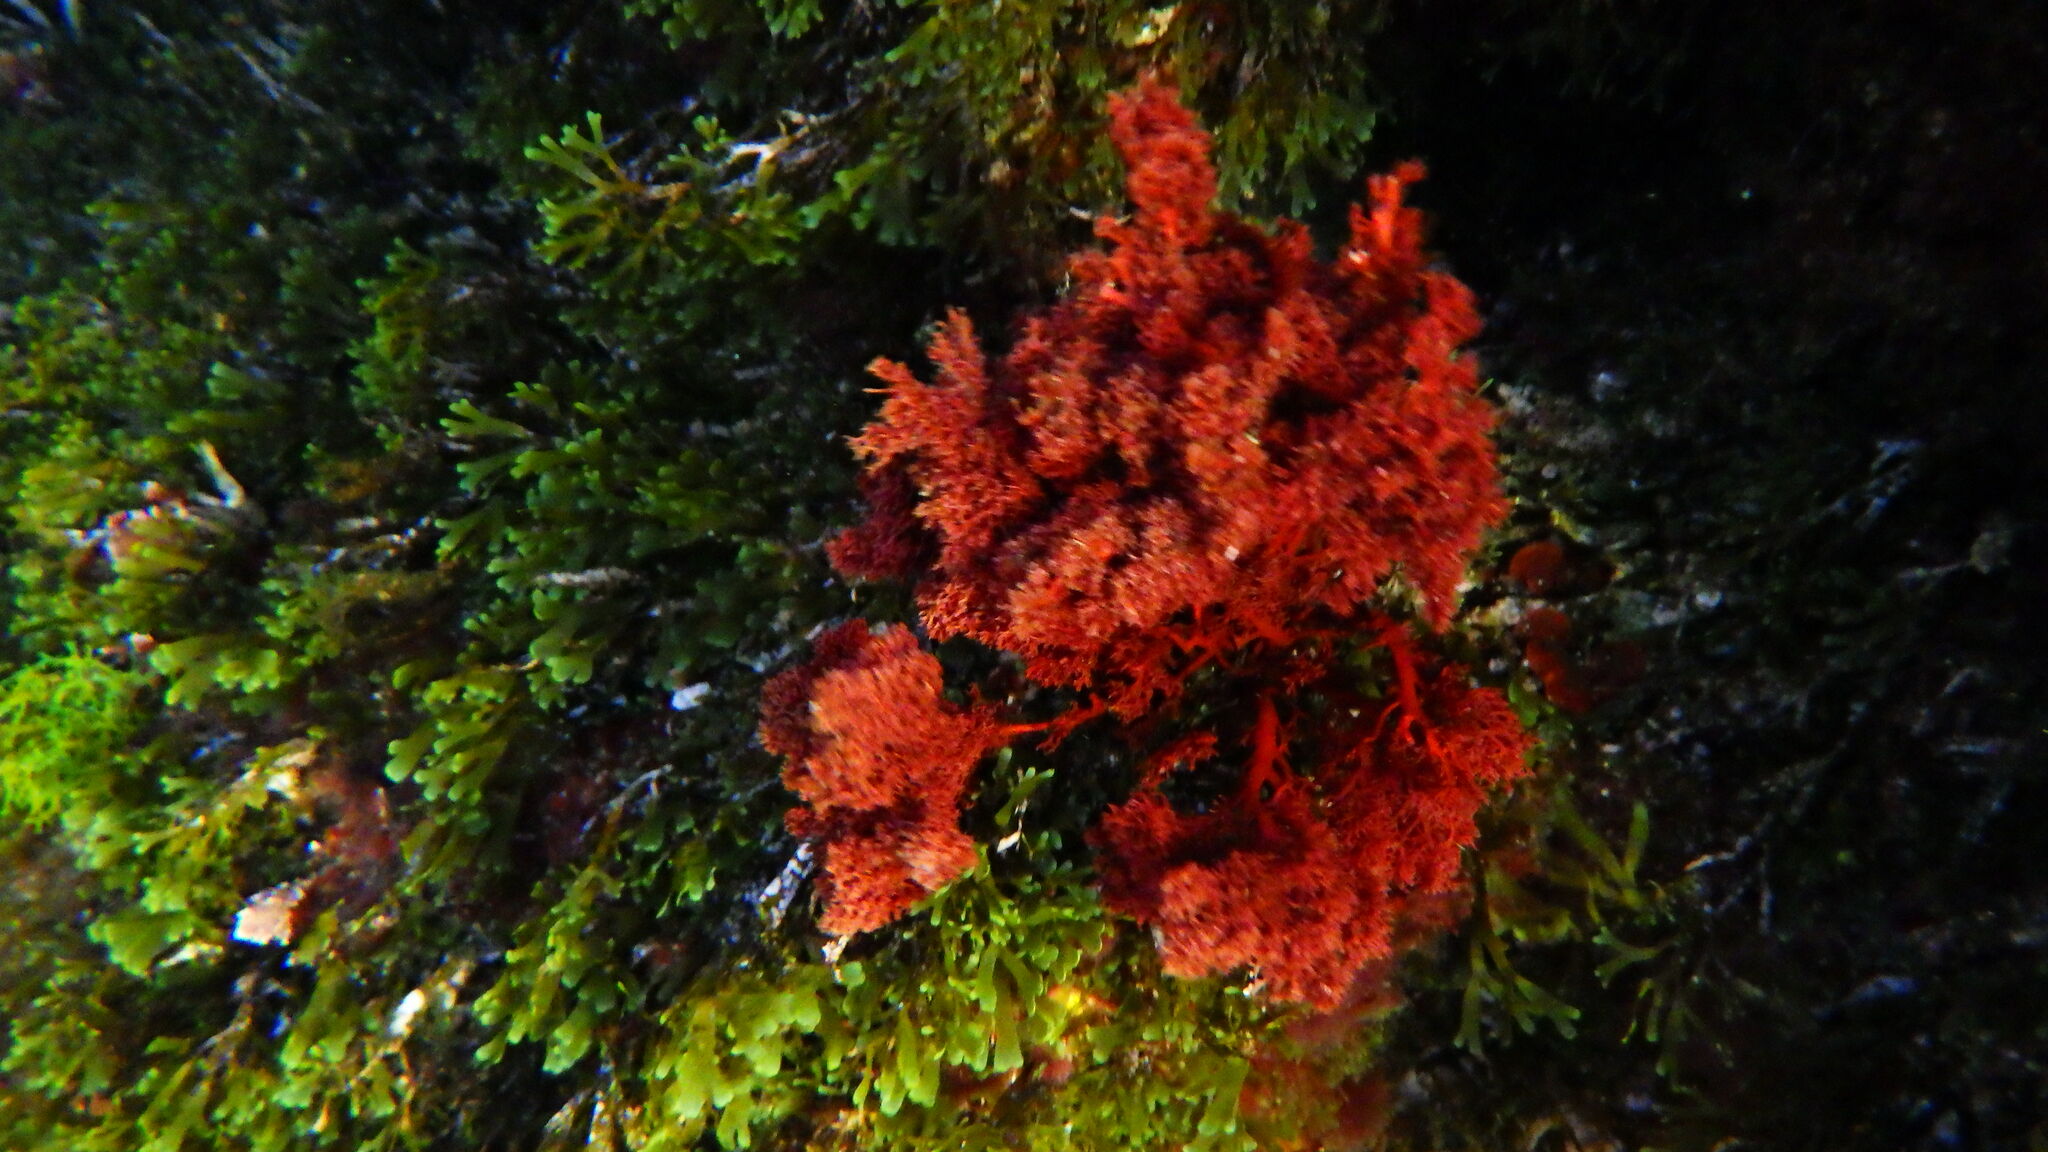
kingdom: Plantae
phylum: Rhodophyta
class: Florideophyceae
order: Gigartinales
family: Sphaerococcaceae
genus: Sphaerococcus
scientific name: Sphaerococcus coronopifolius
